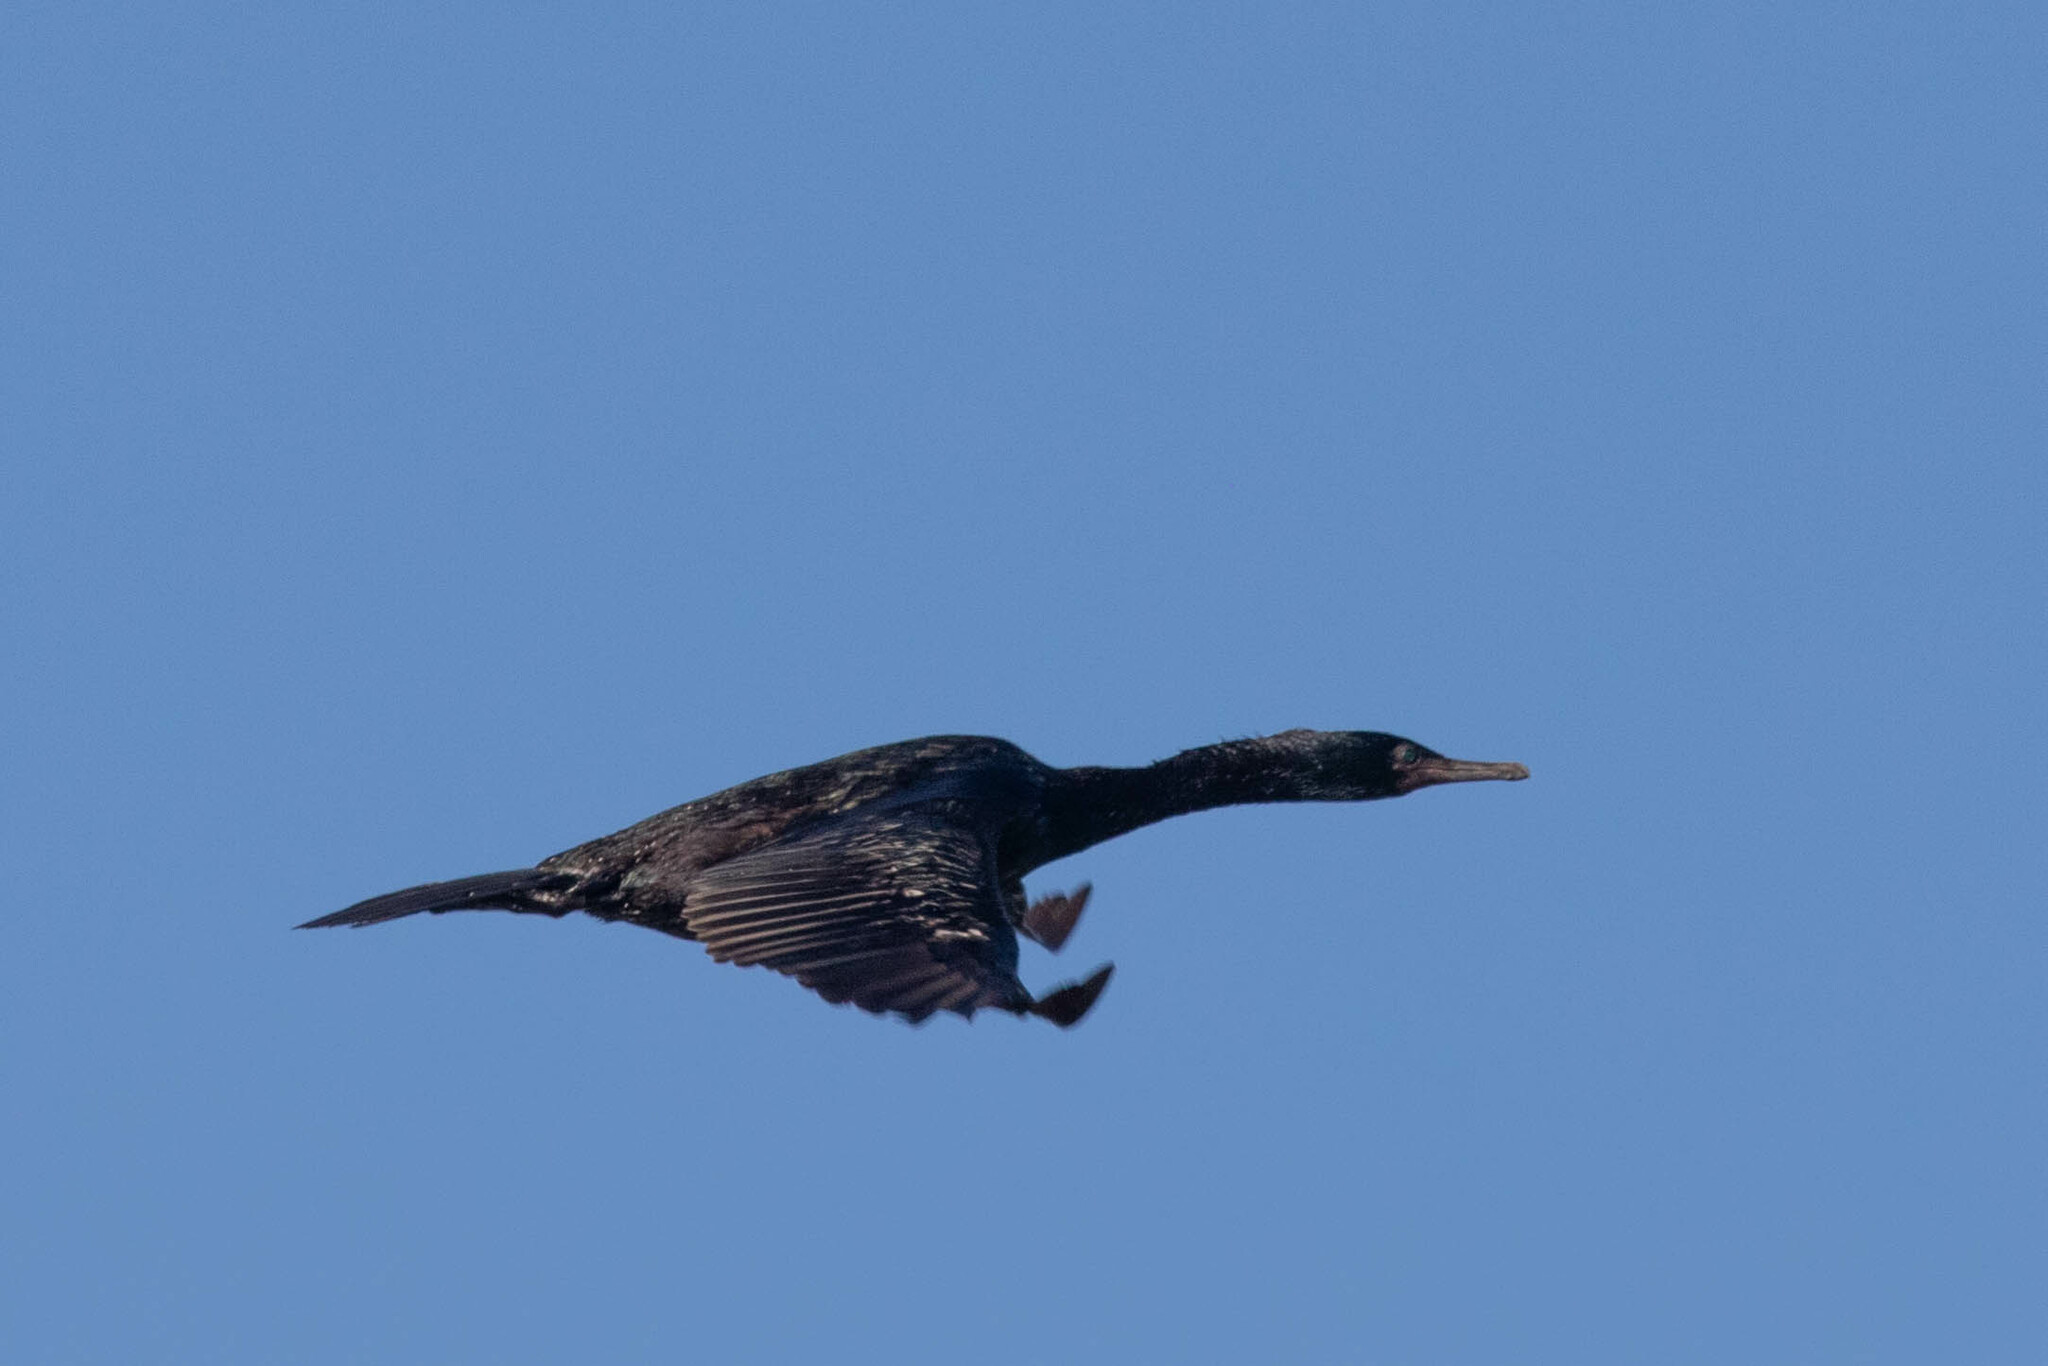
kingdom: Animalia
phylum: Chordata
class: Aves
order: Suliformes
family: Phalacrocoracidae
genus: Phalacrocorax
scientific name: Phalacrocorax pelagicus
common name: Pelagic cormorant
